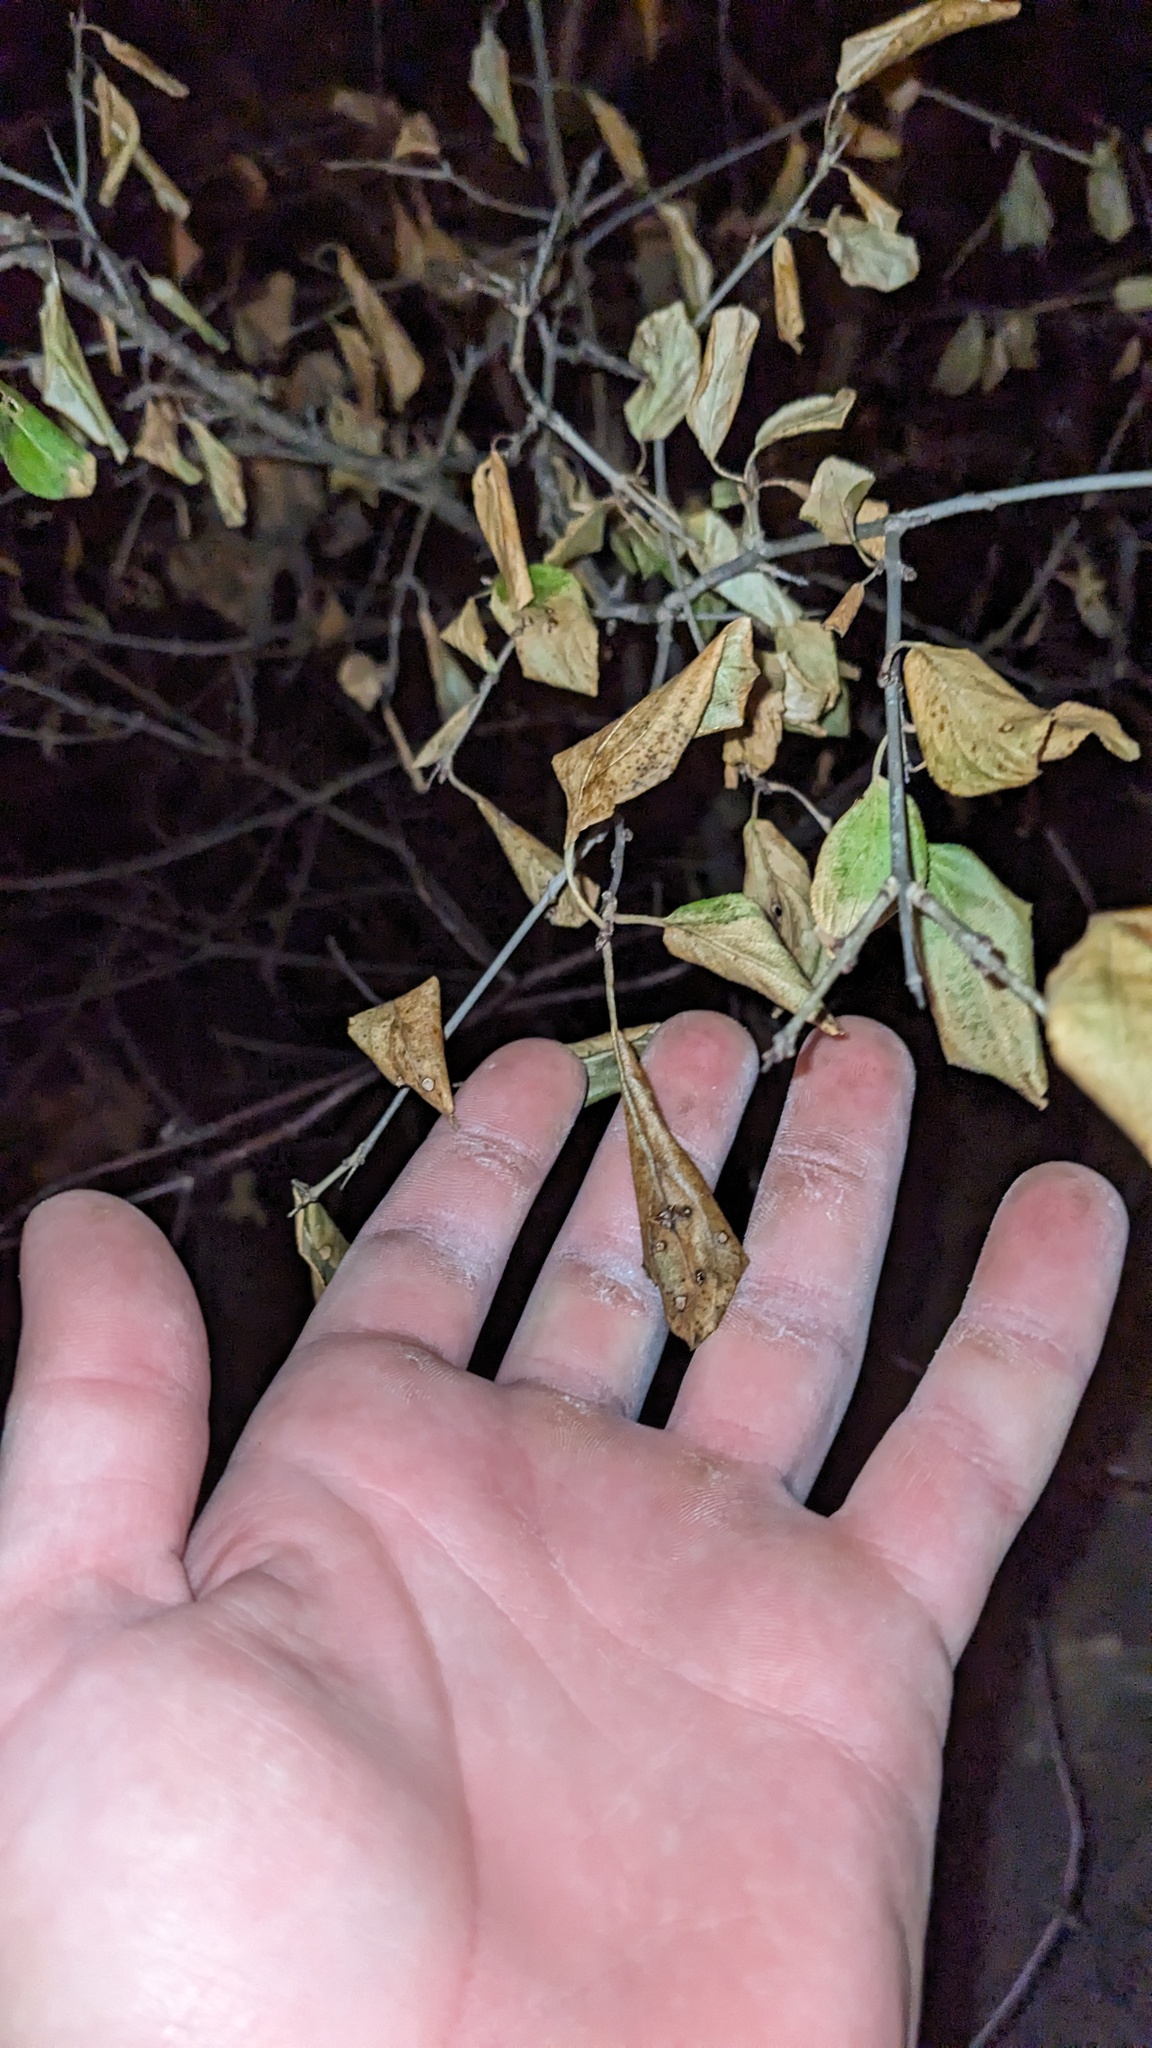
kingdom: Plantae
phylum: Tracheophyta
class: Magnoliopsida
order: Rosales
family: Rhamnaceae
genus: Rhamnus
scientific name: Rhamnus cathartica
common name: Common buckthorn
